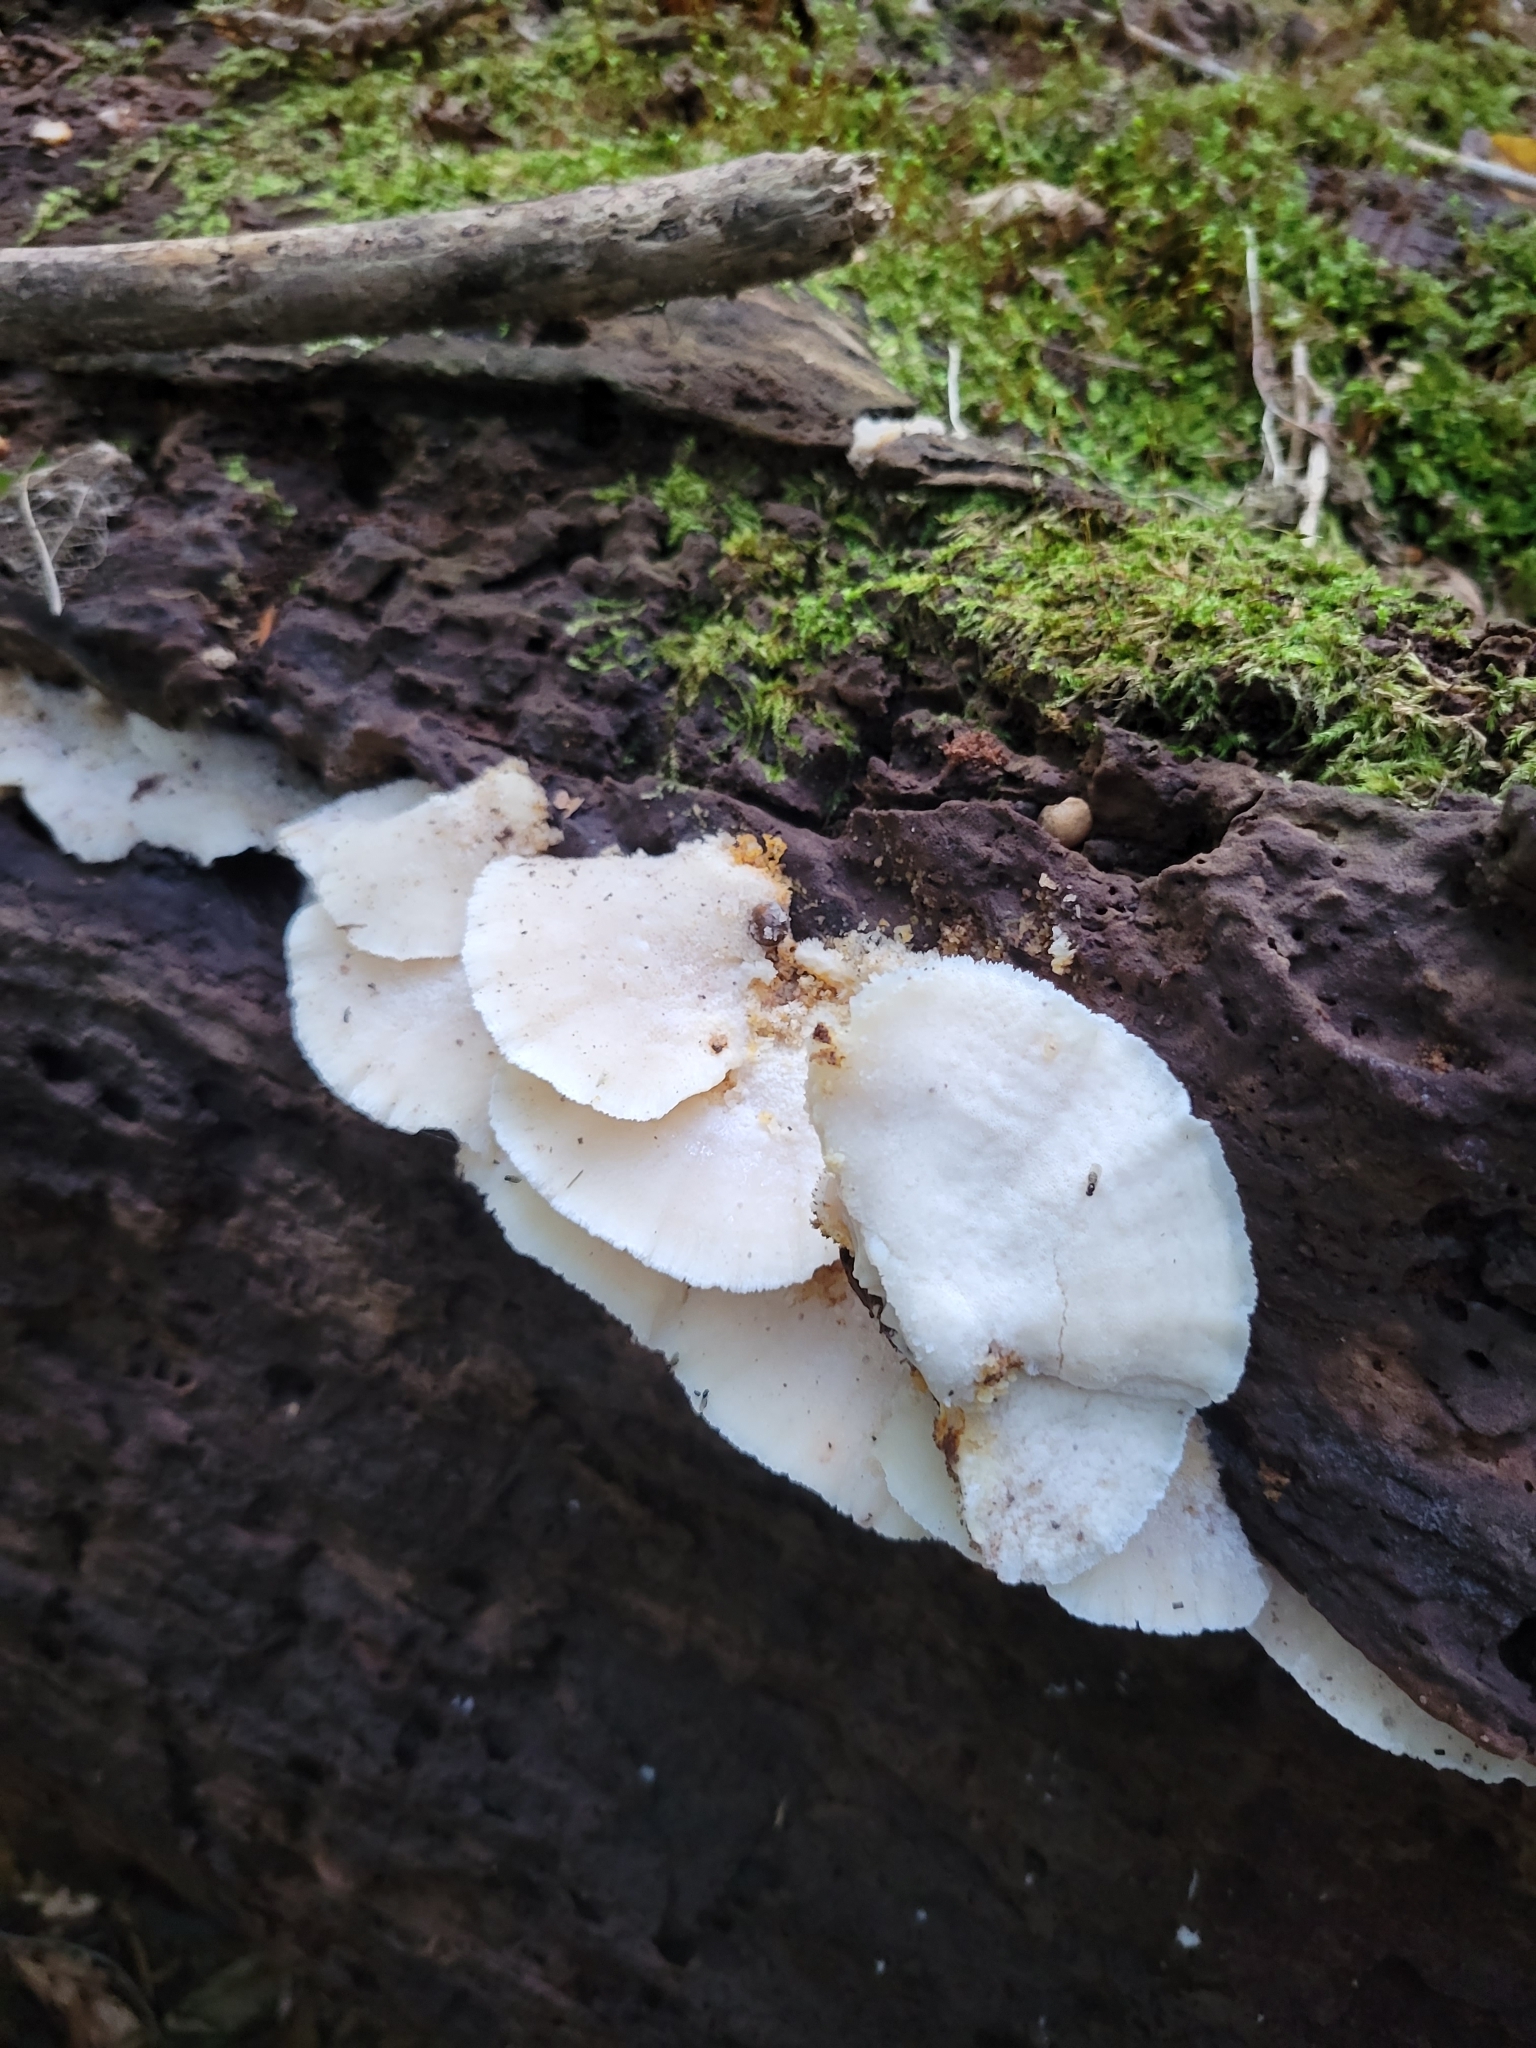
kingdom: Fungi
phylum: Basidiomycota
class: Agaricomycetes
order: Polyporales
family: Incrustoporiaceae
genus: Tyromyces
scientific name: Tyromyces chioneus
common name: White cheese polypore
